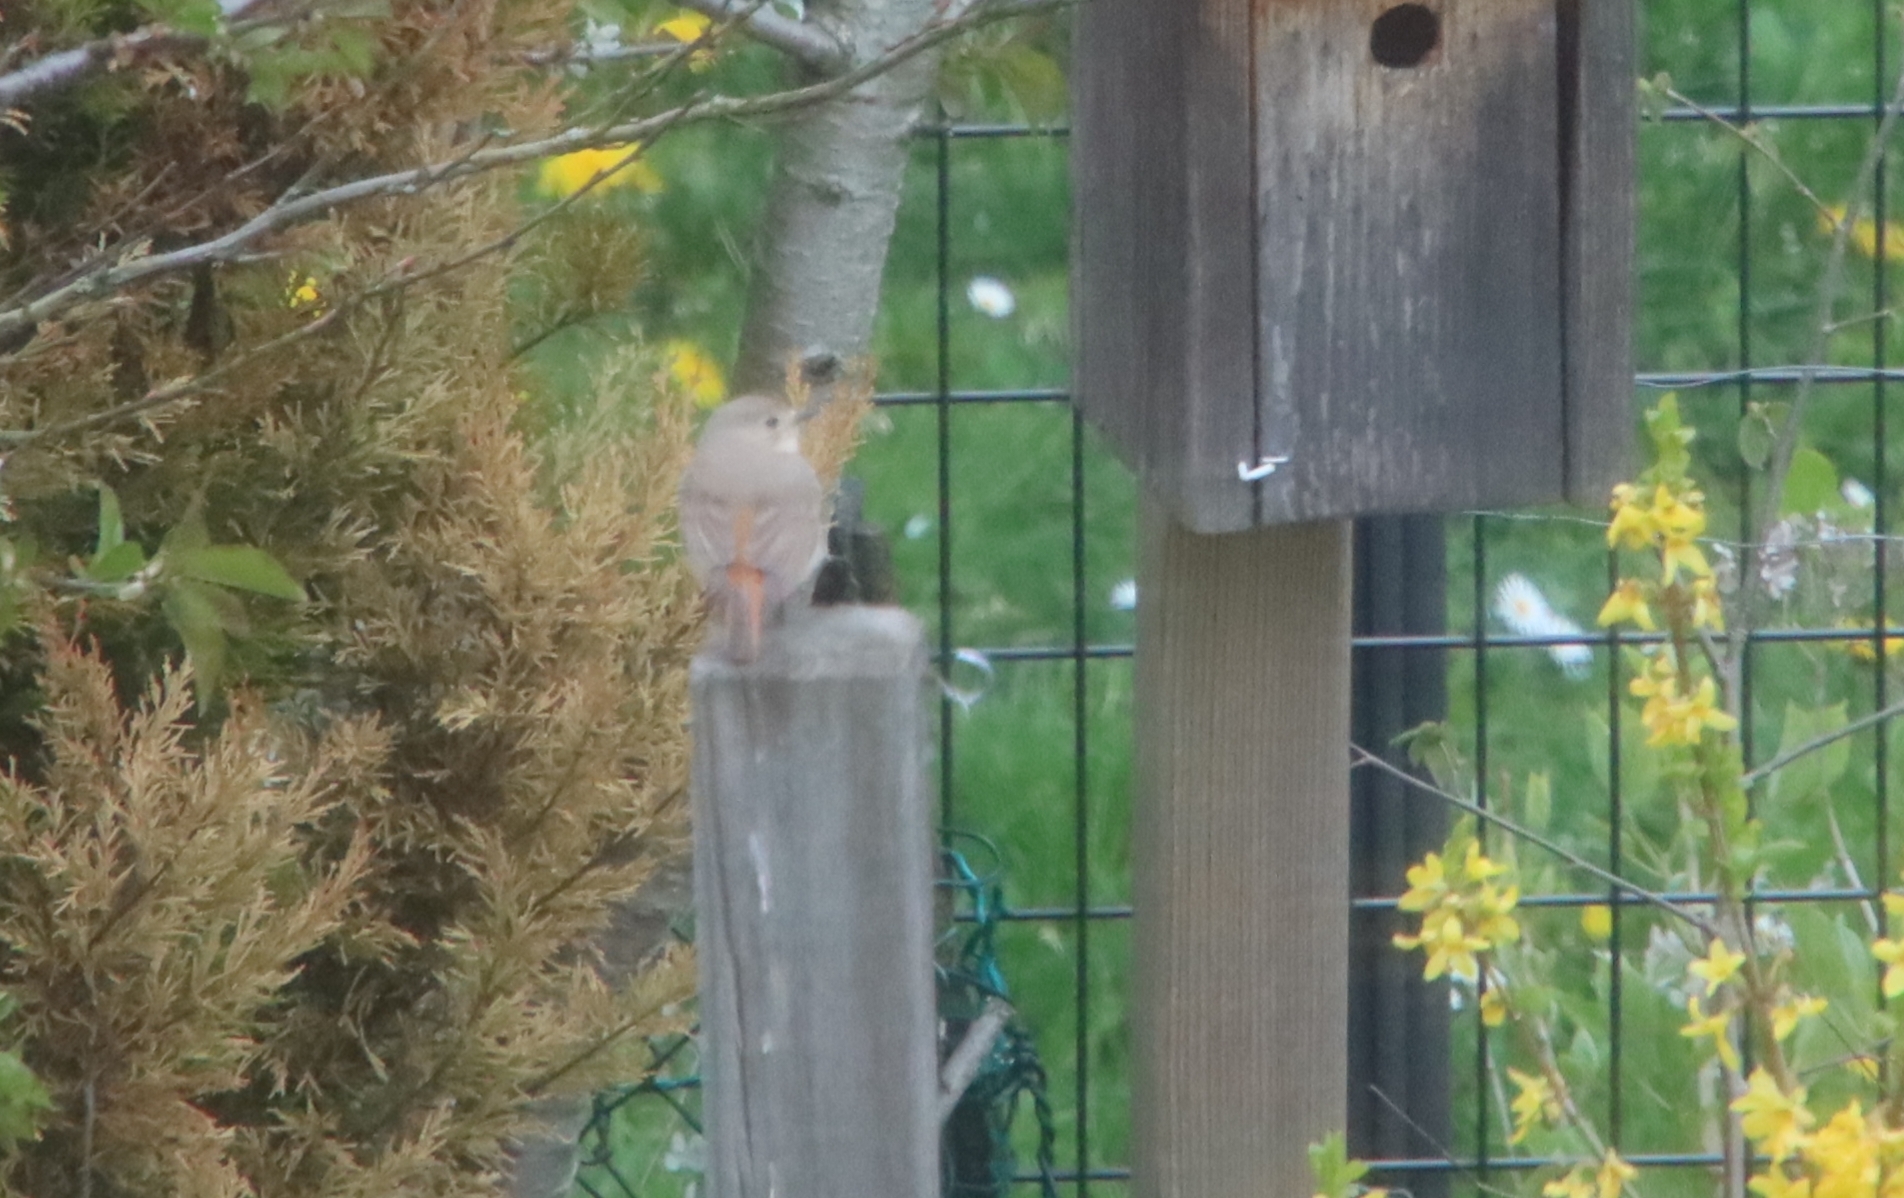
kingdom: Animalia
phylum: Chordata
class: Aves
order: Passeriformes
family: Muscicapidae
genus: Phoenicurus
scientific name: Phoenicurus phoenicurus
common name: Common redstart
